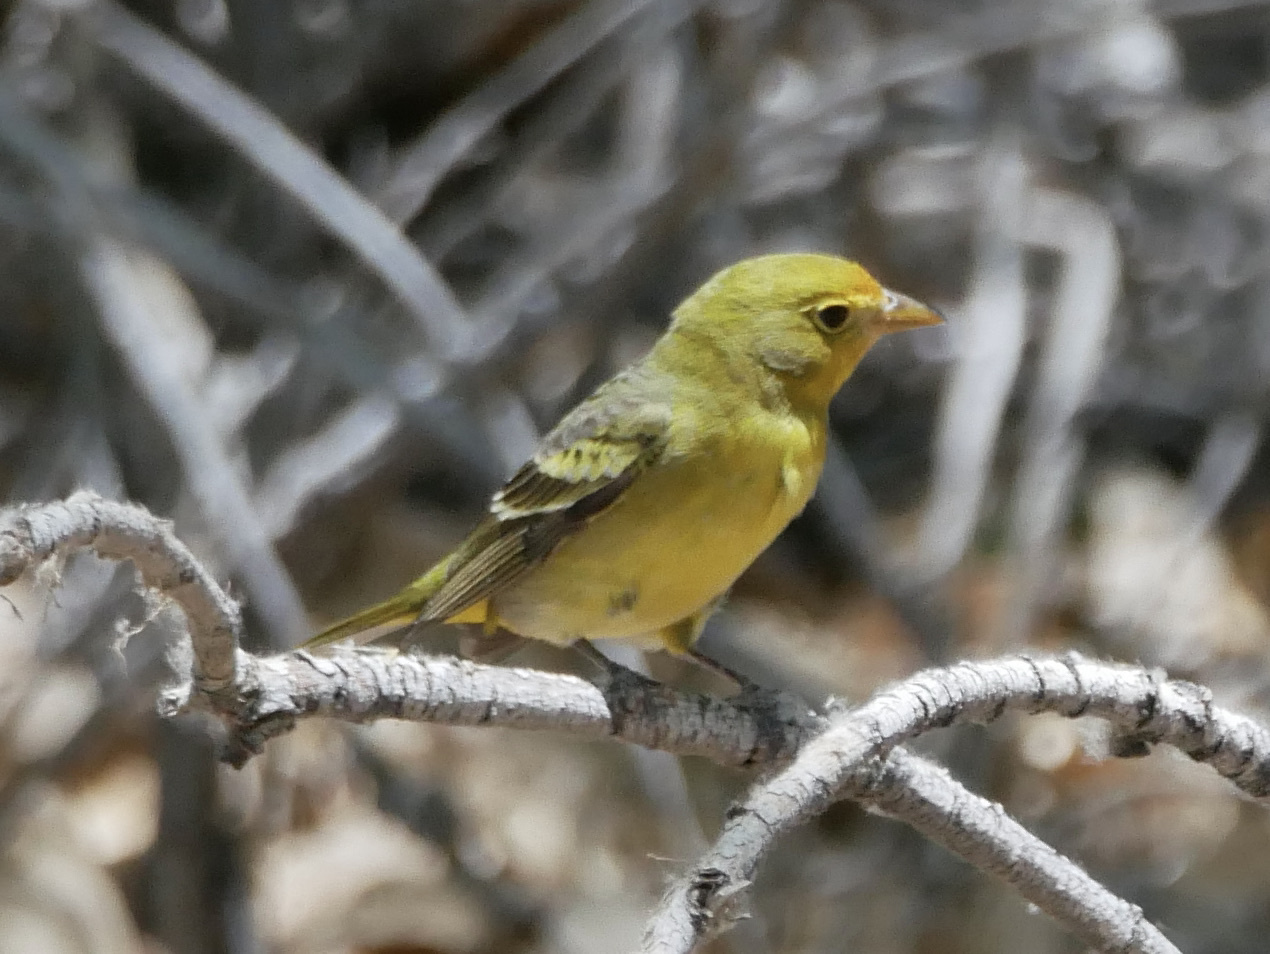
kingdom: Animalia
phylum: Chordata
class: Aves
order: Passeriformes
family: Cardinalidae
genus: Piranga
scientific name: Piranga ludoviciana
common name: Western tanager
